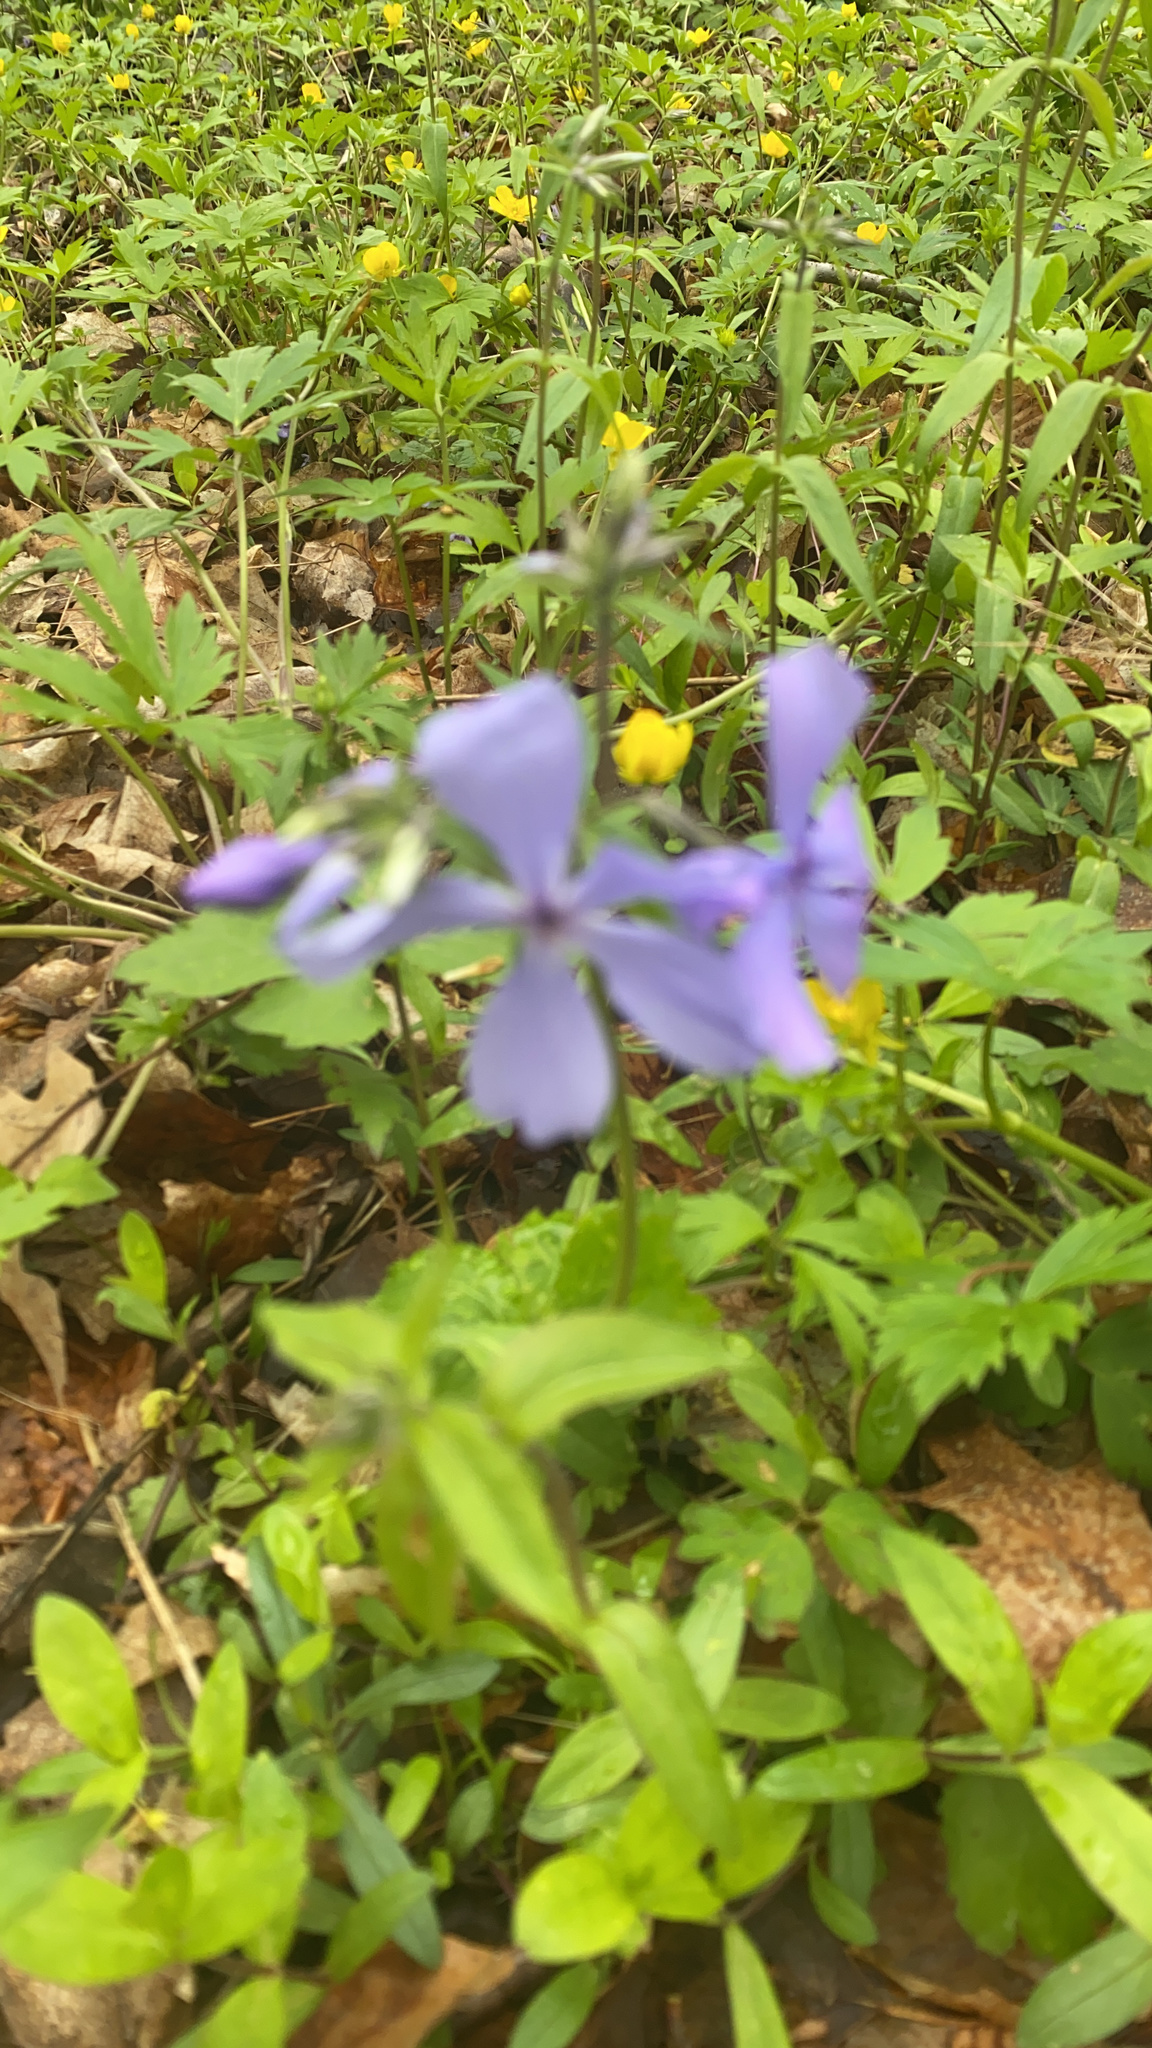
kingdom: Plantae
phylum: Tracheophyta
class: Magnoliopsida
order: Ericales
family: Polemoniaceae
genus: Phlox
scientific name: Phlox divaricata
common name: Blue phlox
